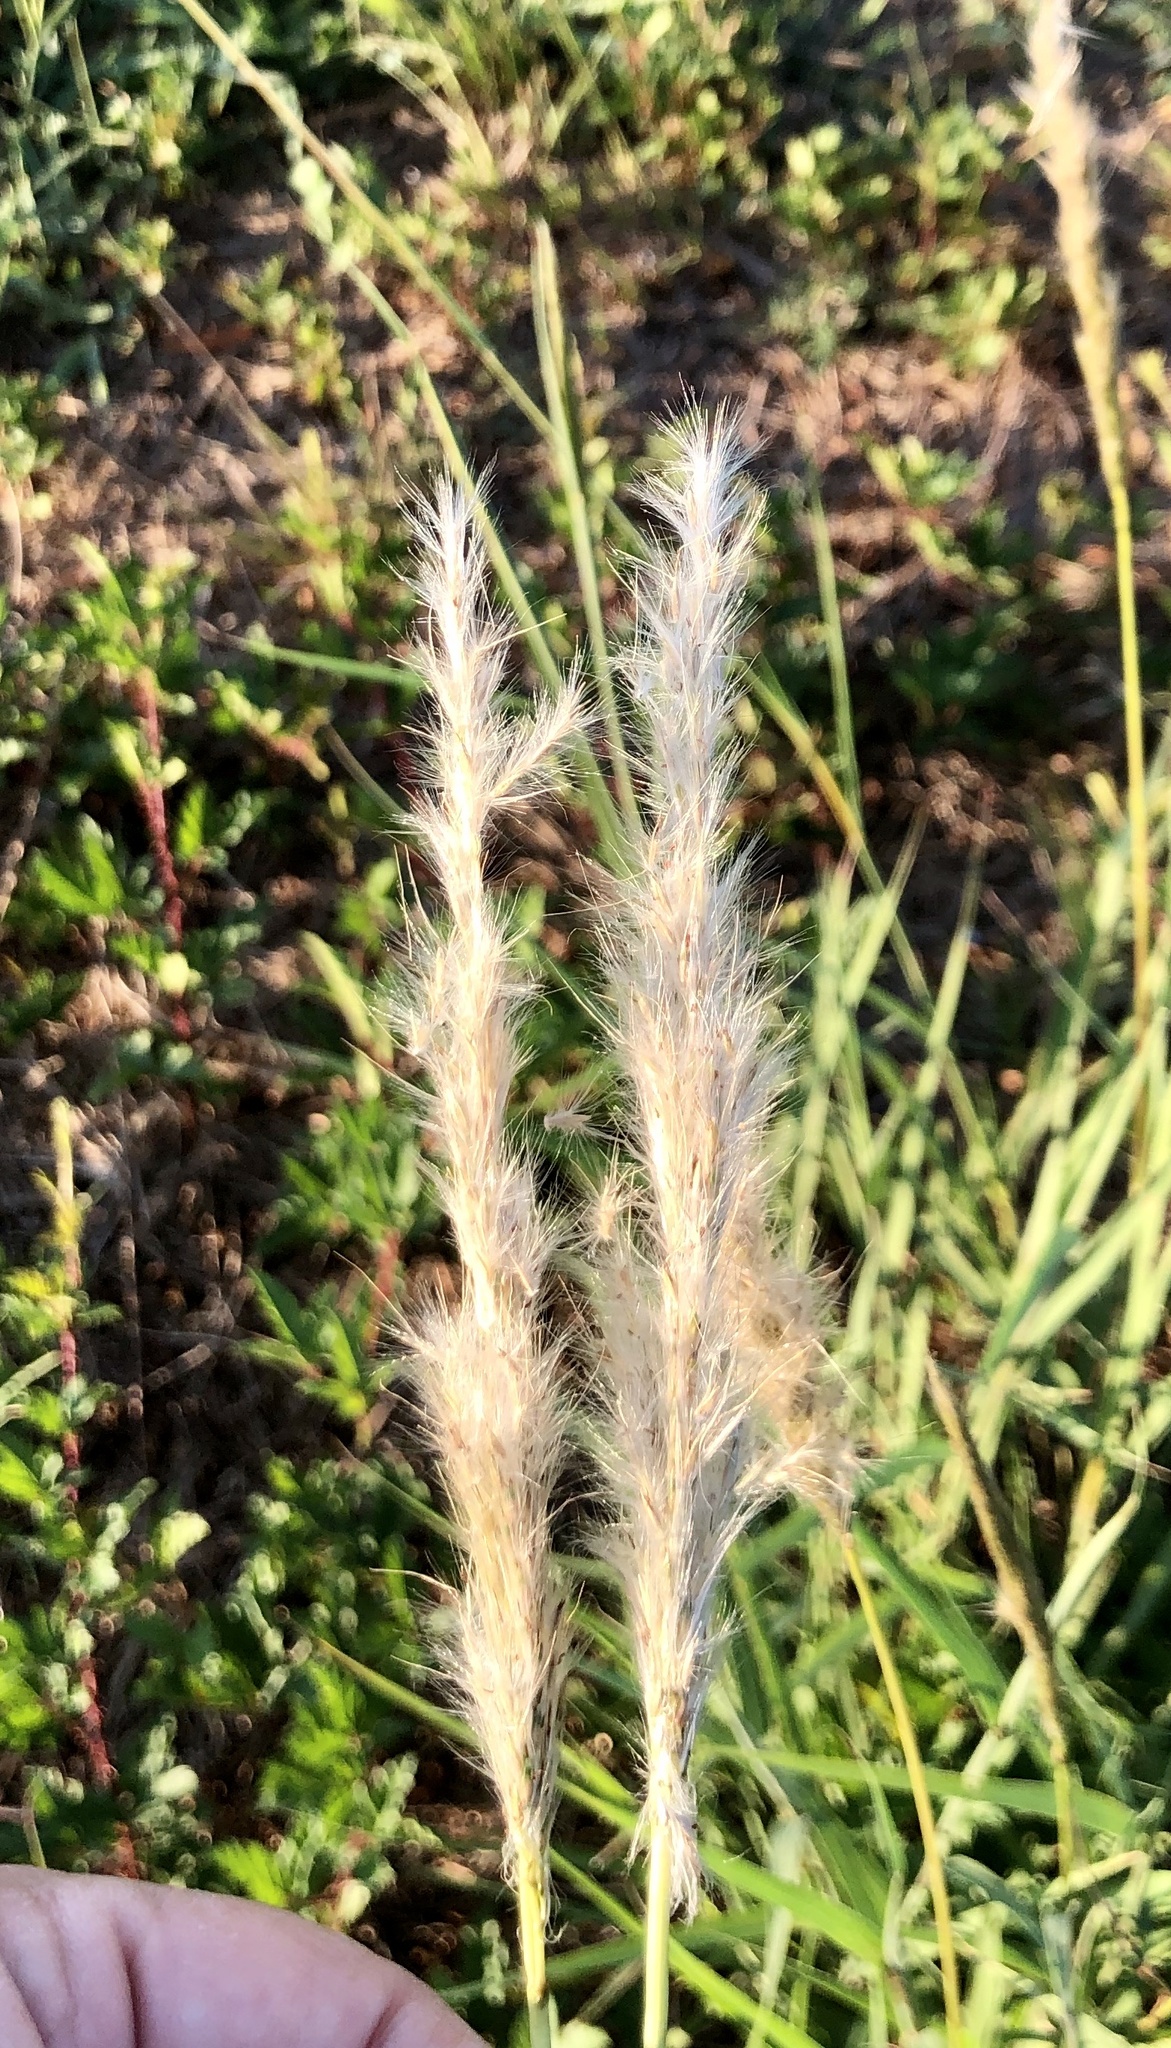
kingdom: Plantae
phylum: Tracheophyta
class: Liliopsida
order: Poales
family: Poaceae
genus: Bothriochloa
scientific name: Bothriochloa torreyana
